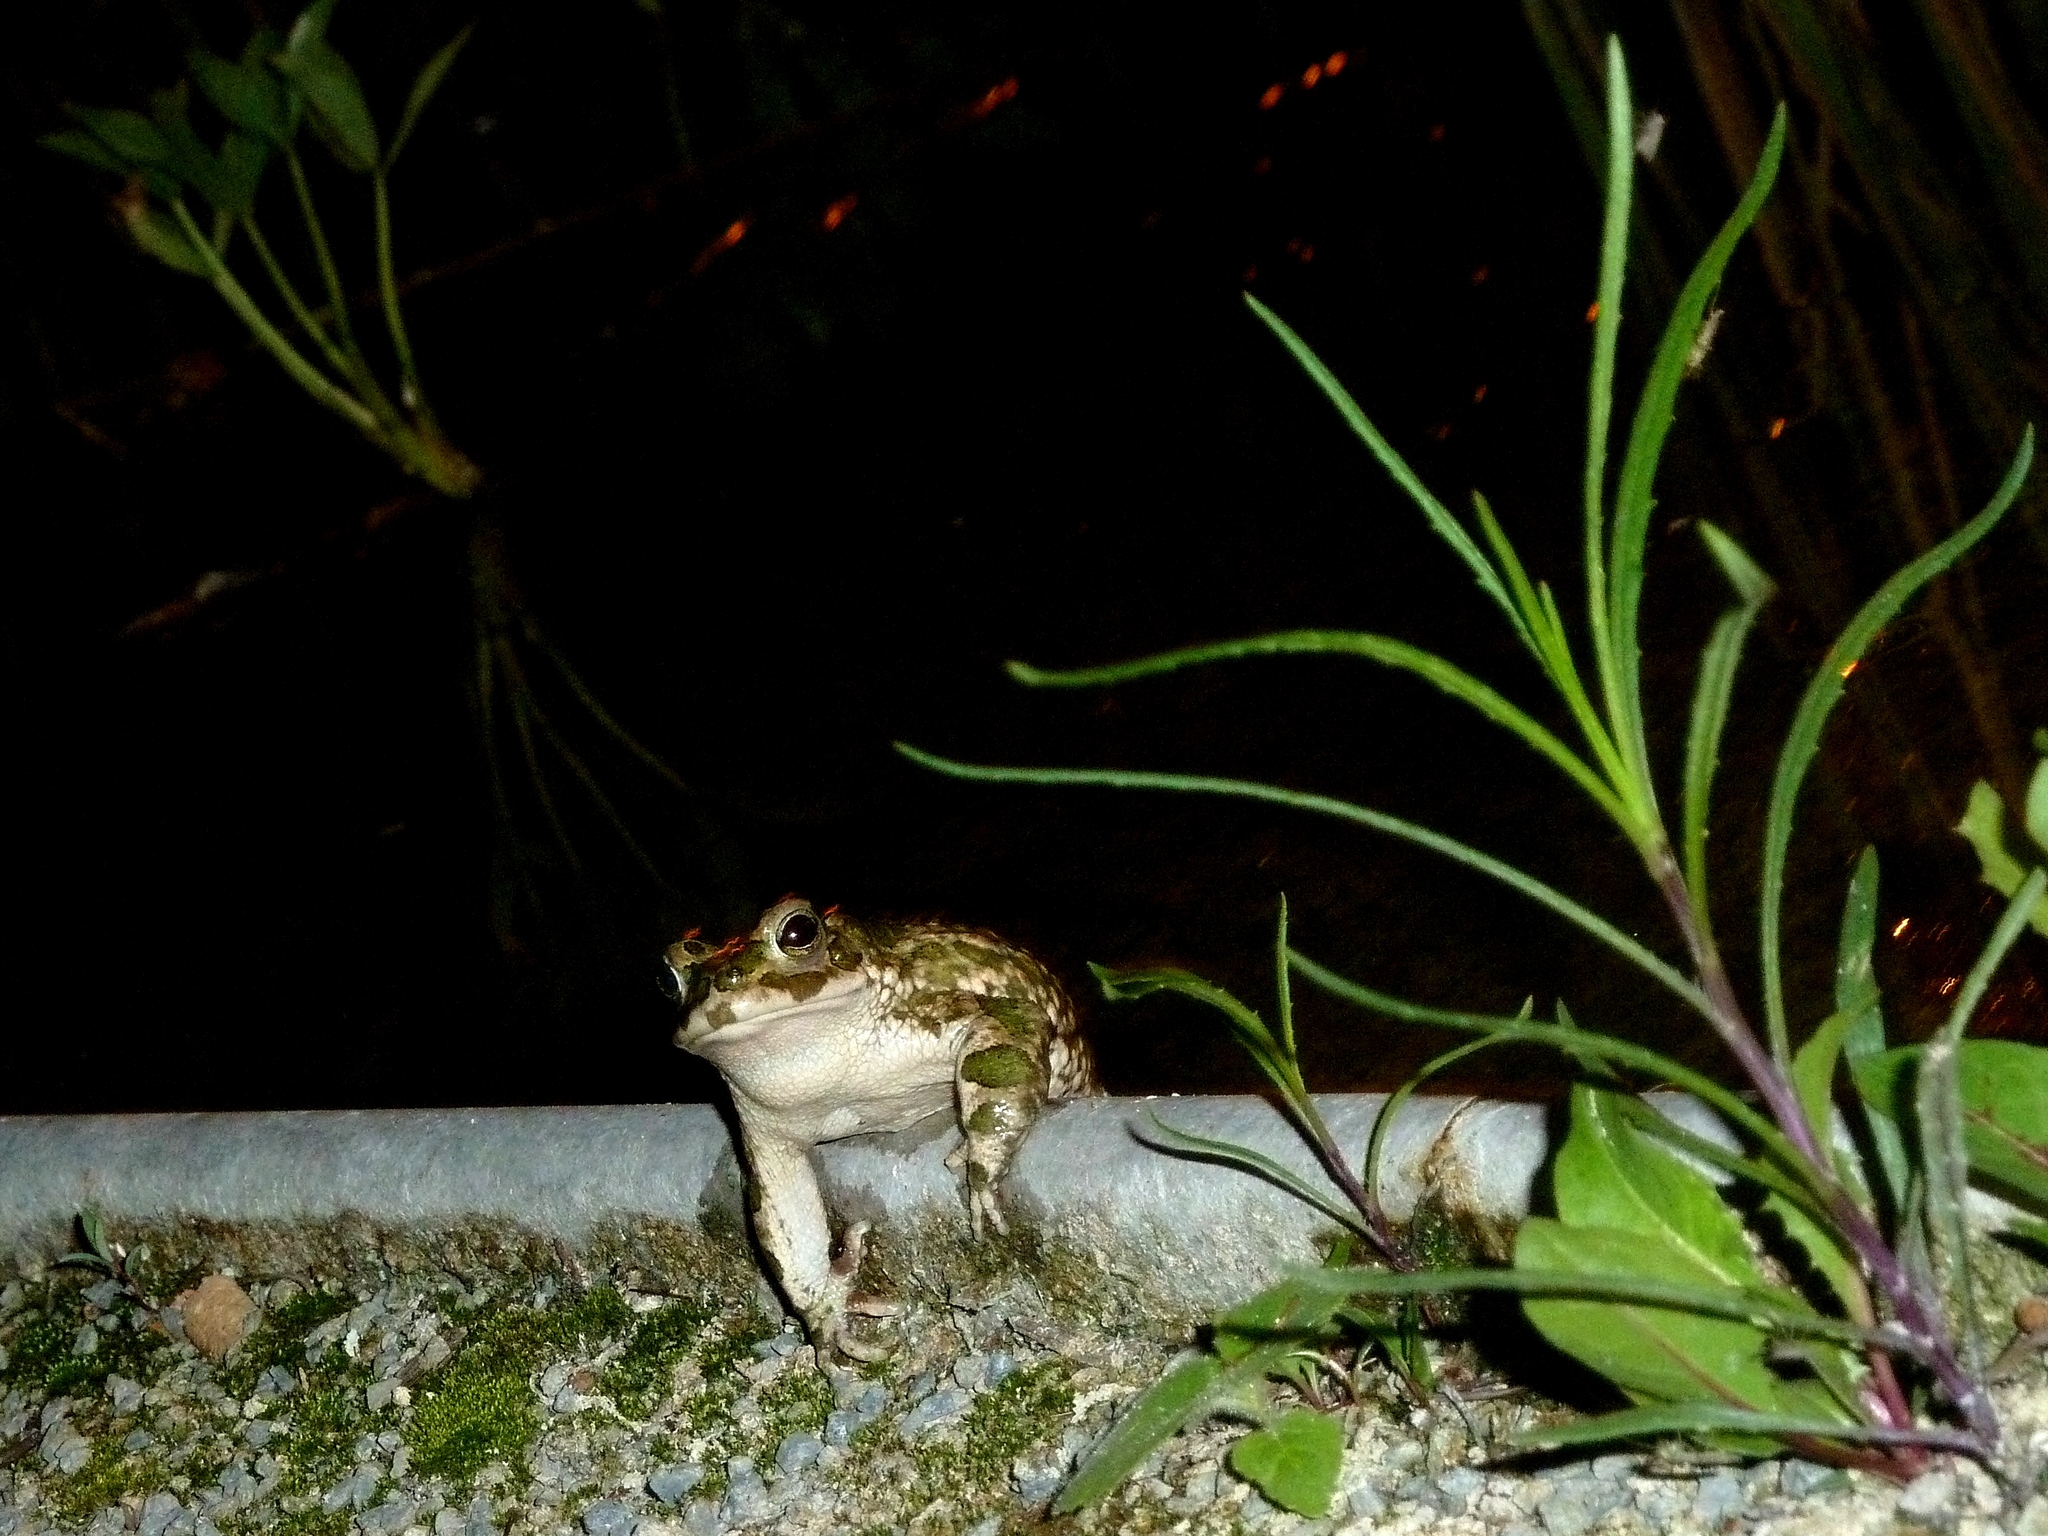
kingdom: Animalia
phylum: Chordata
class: Amphibia
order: Anura
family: Bufonidae
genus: Bufotes
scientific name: Bufotes viridis
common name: European green toad
